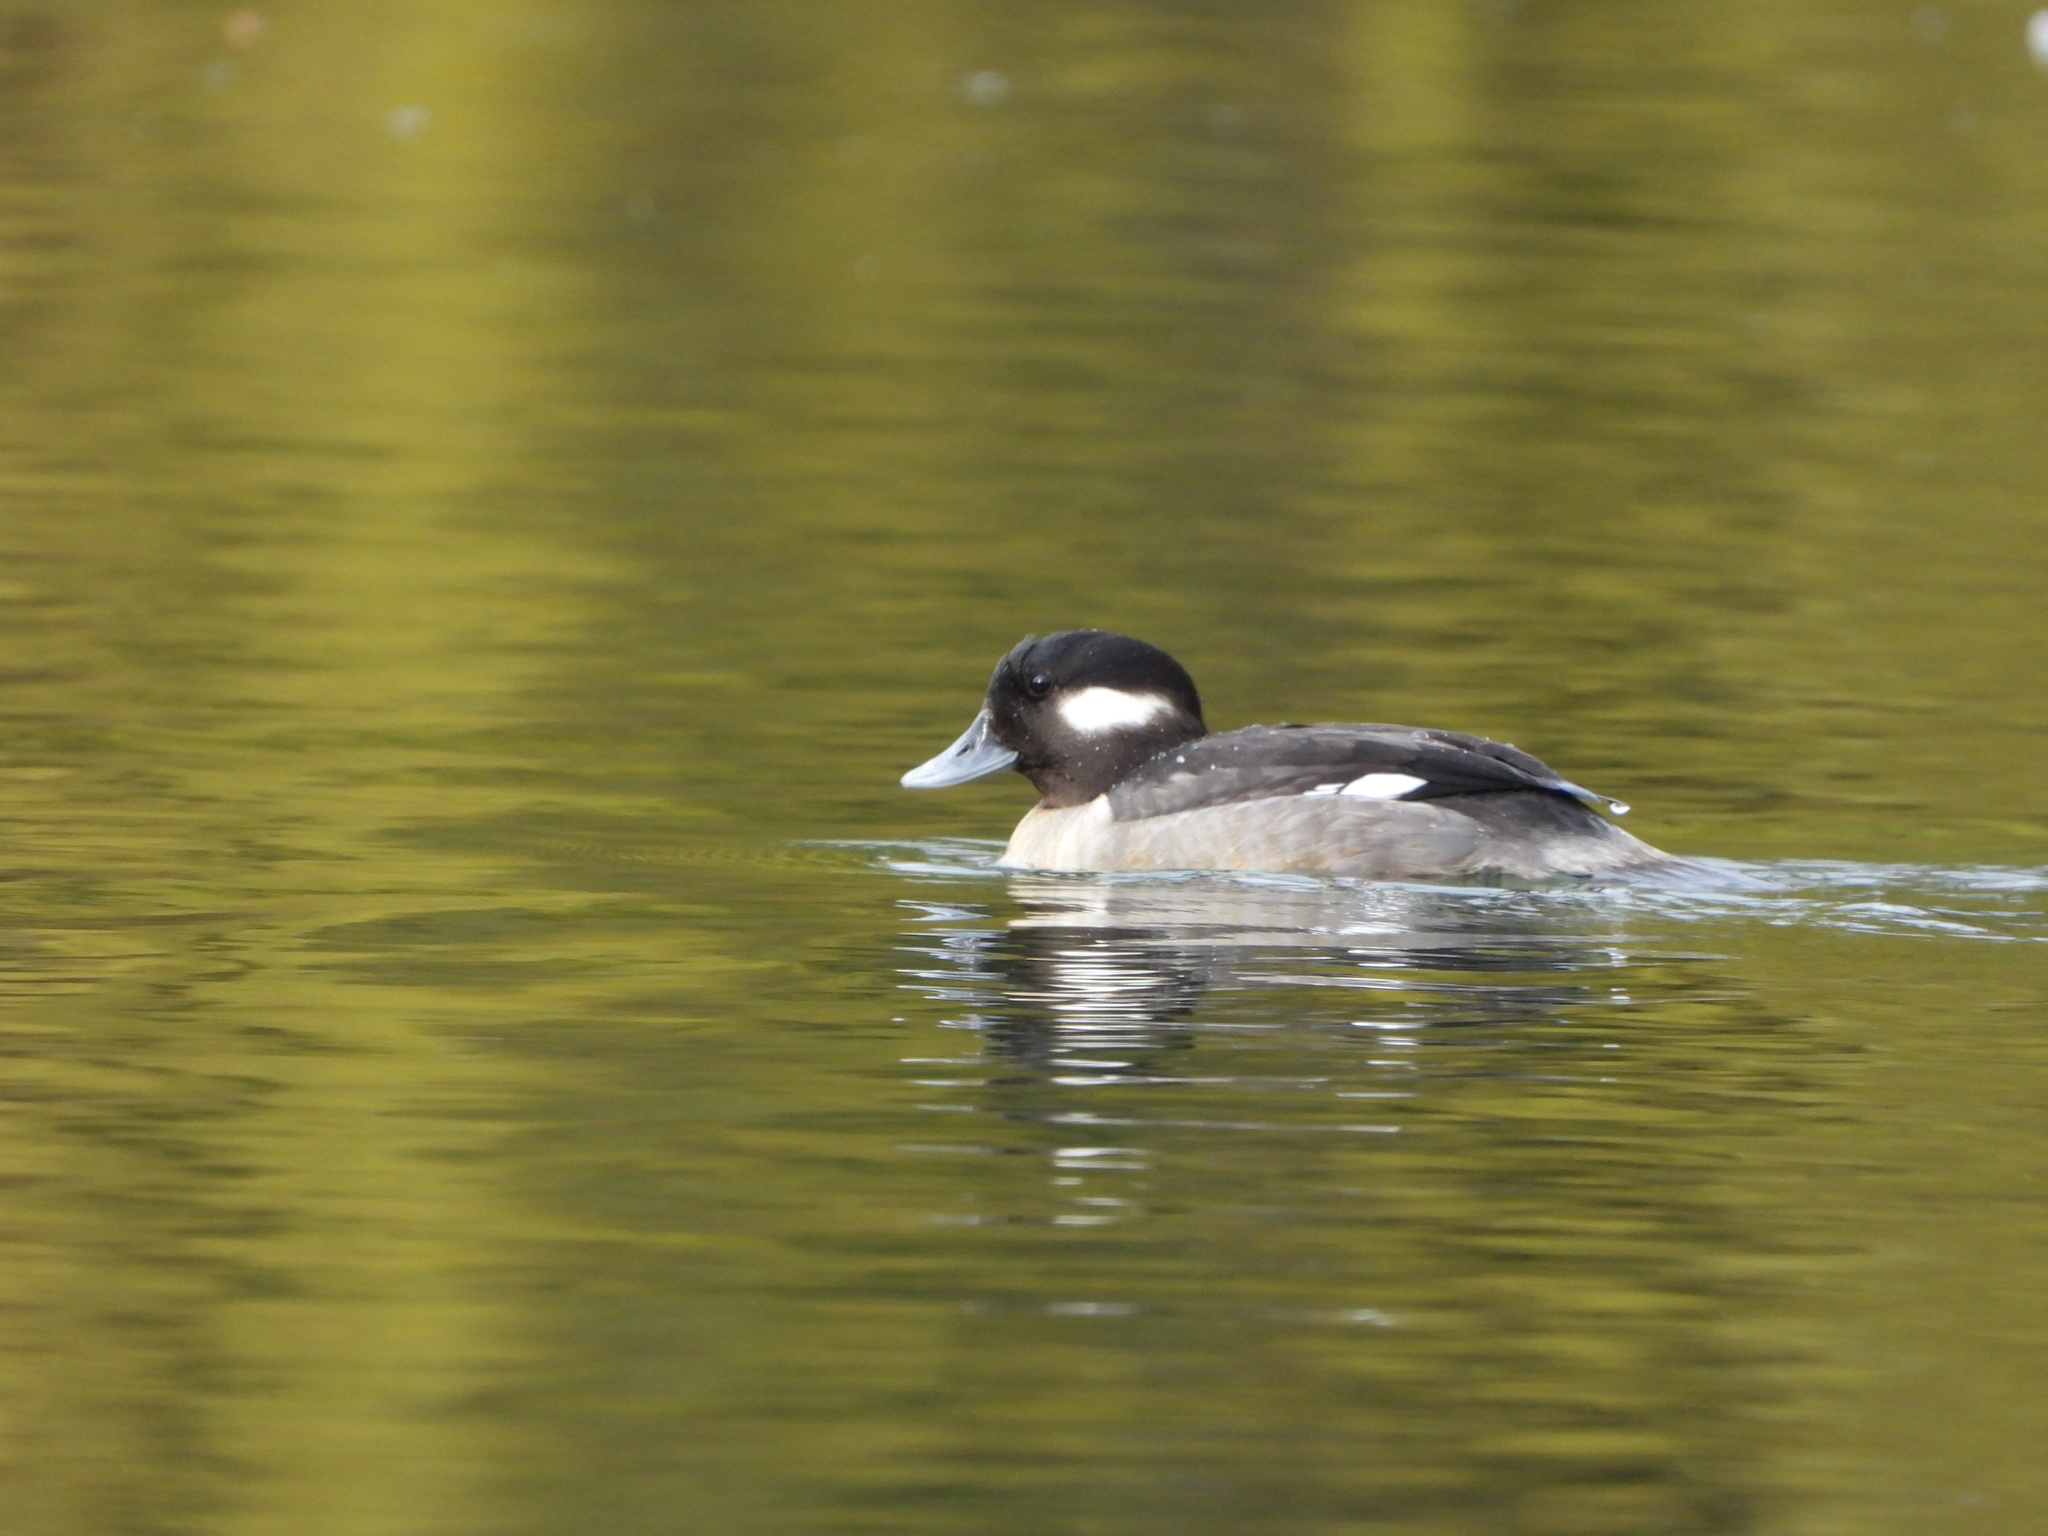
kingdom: Animalia
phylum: Chordata
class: Aves
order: Anseriformes
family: Anatidae
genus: Bucephala
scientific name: Bucephala albeola
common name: Bufflehead
